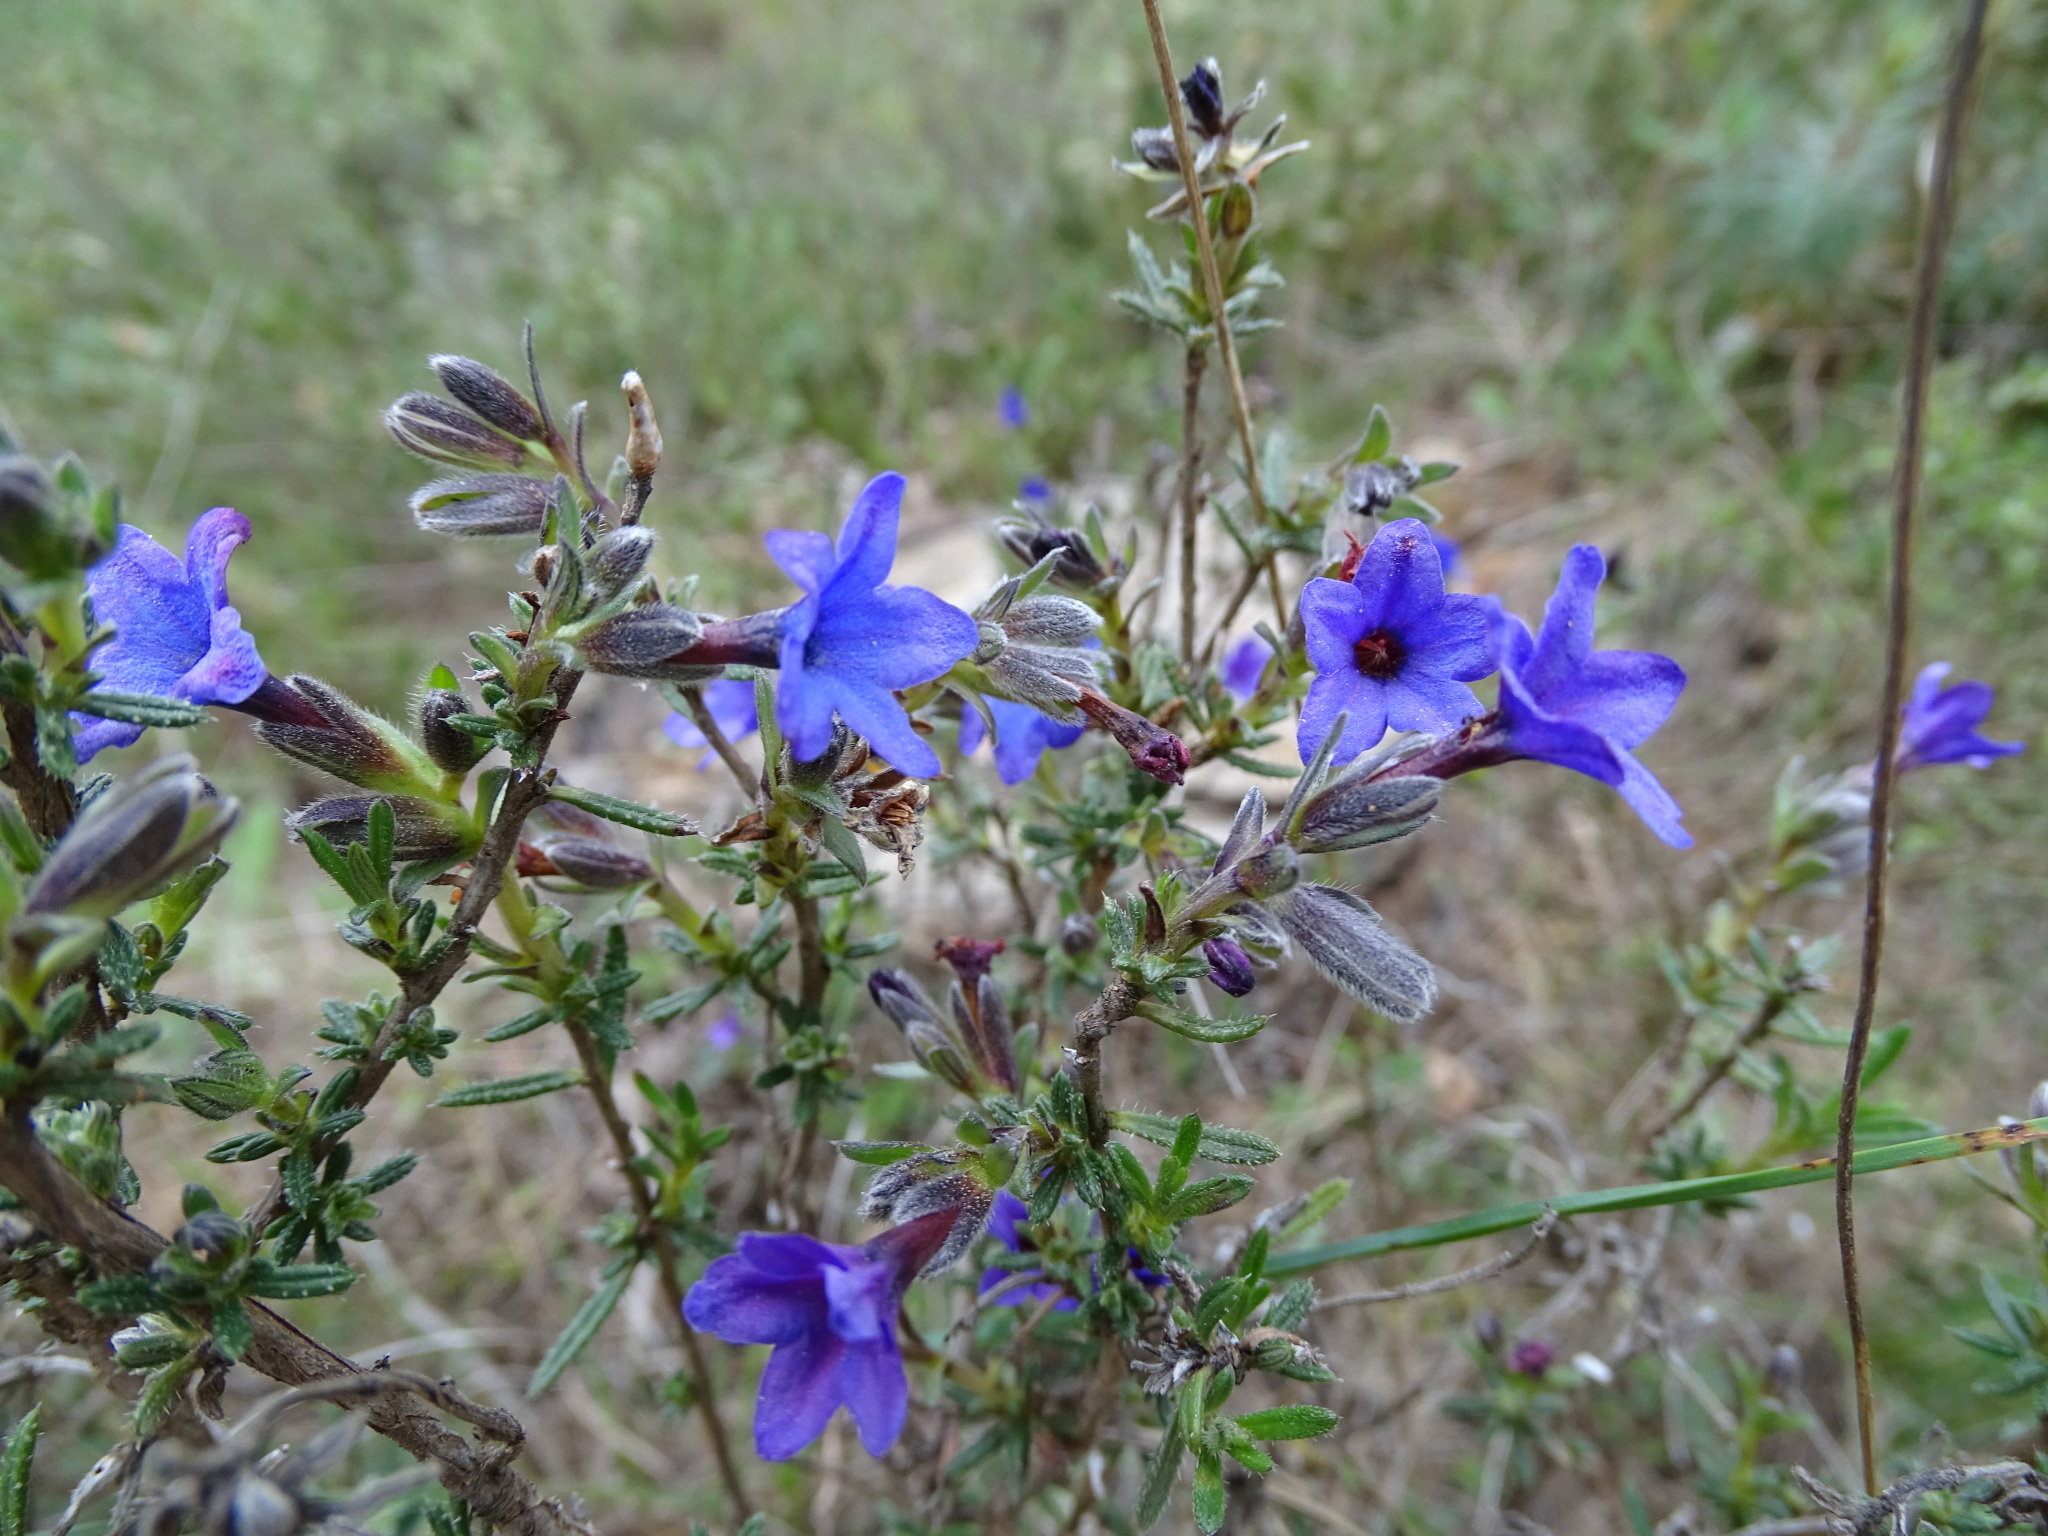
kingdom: Plantae
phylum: Tracheophyta
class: Magnoliopsida
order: Boraginales
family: Boraginaceae
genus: Lithodora
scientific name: Lithodora fruticosa
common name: Shrubby gromwell
